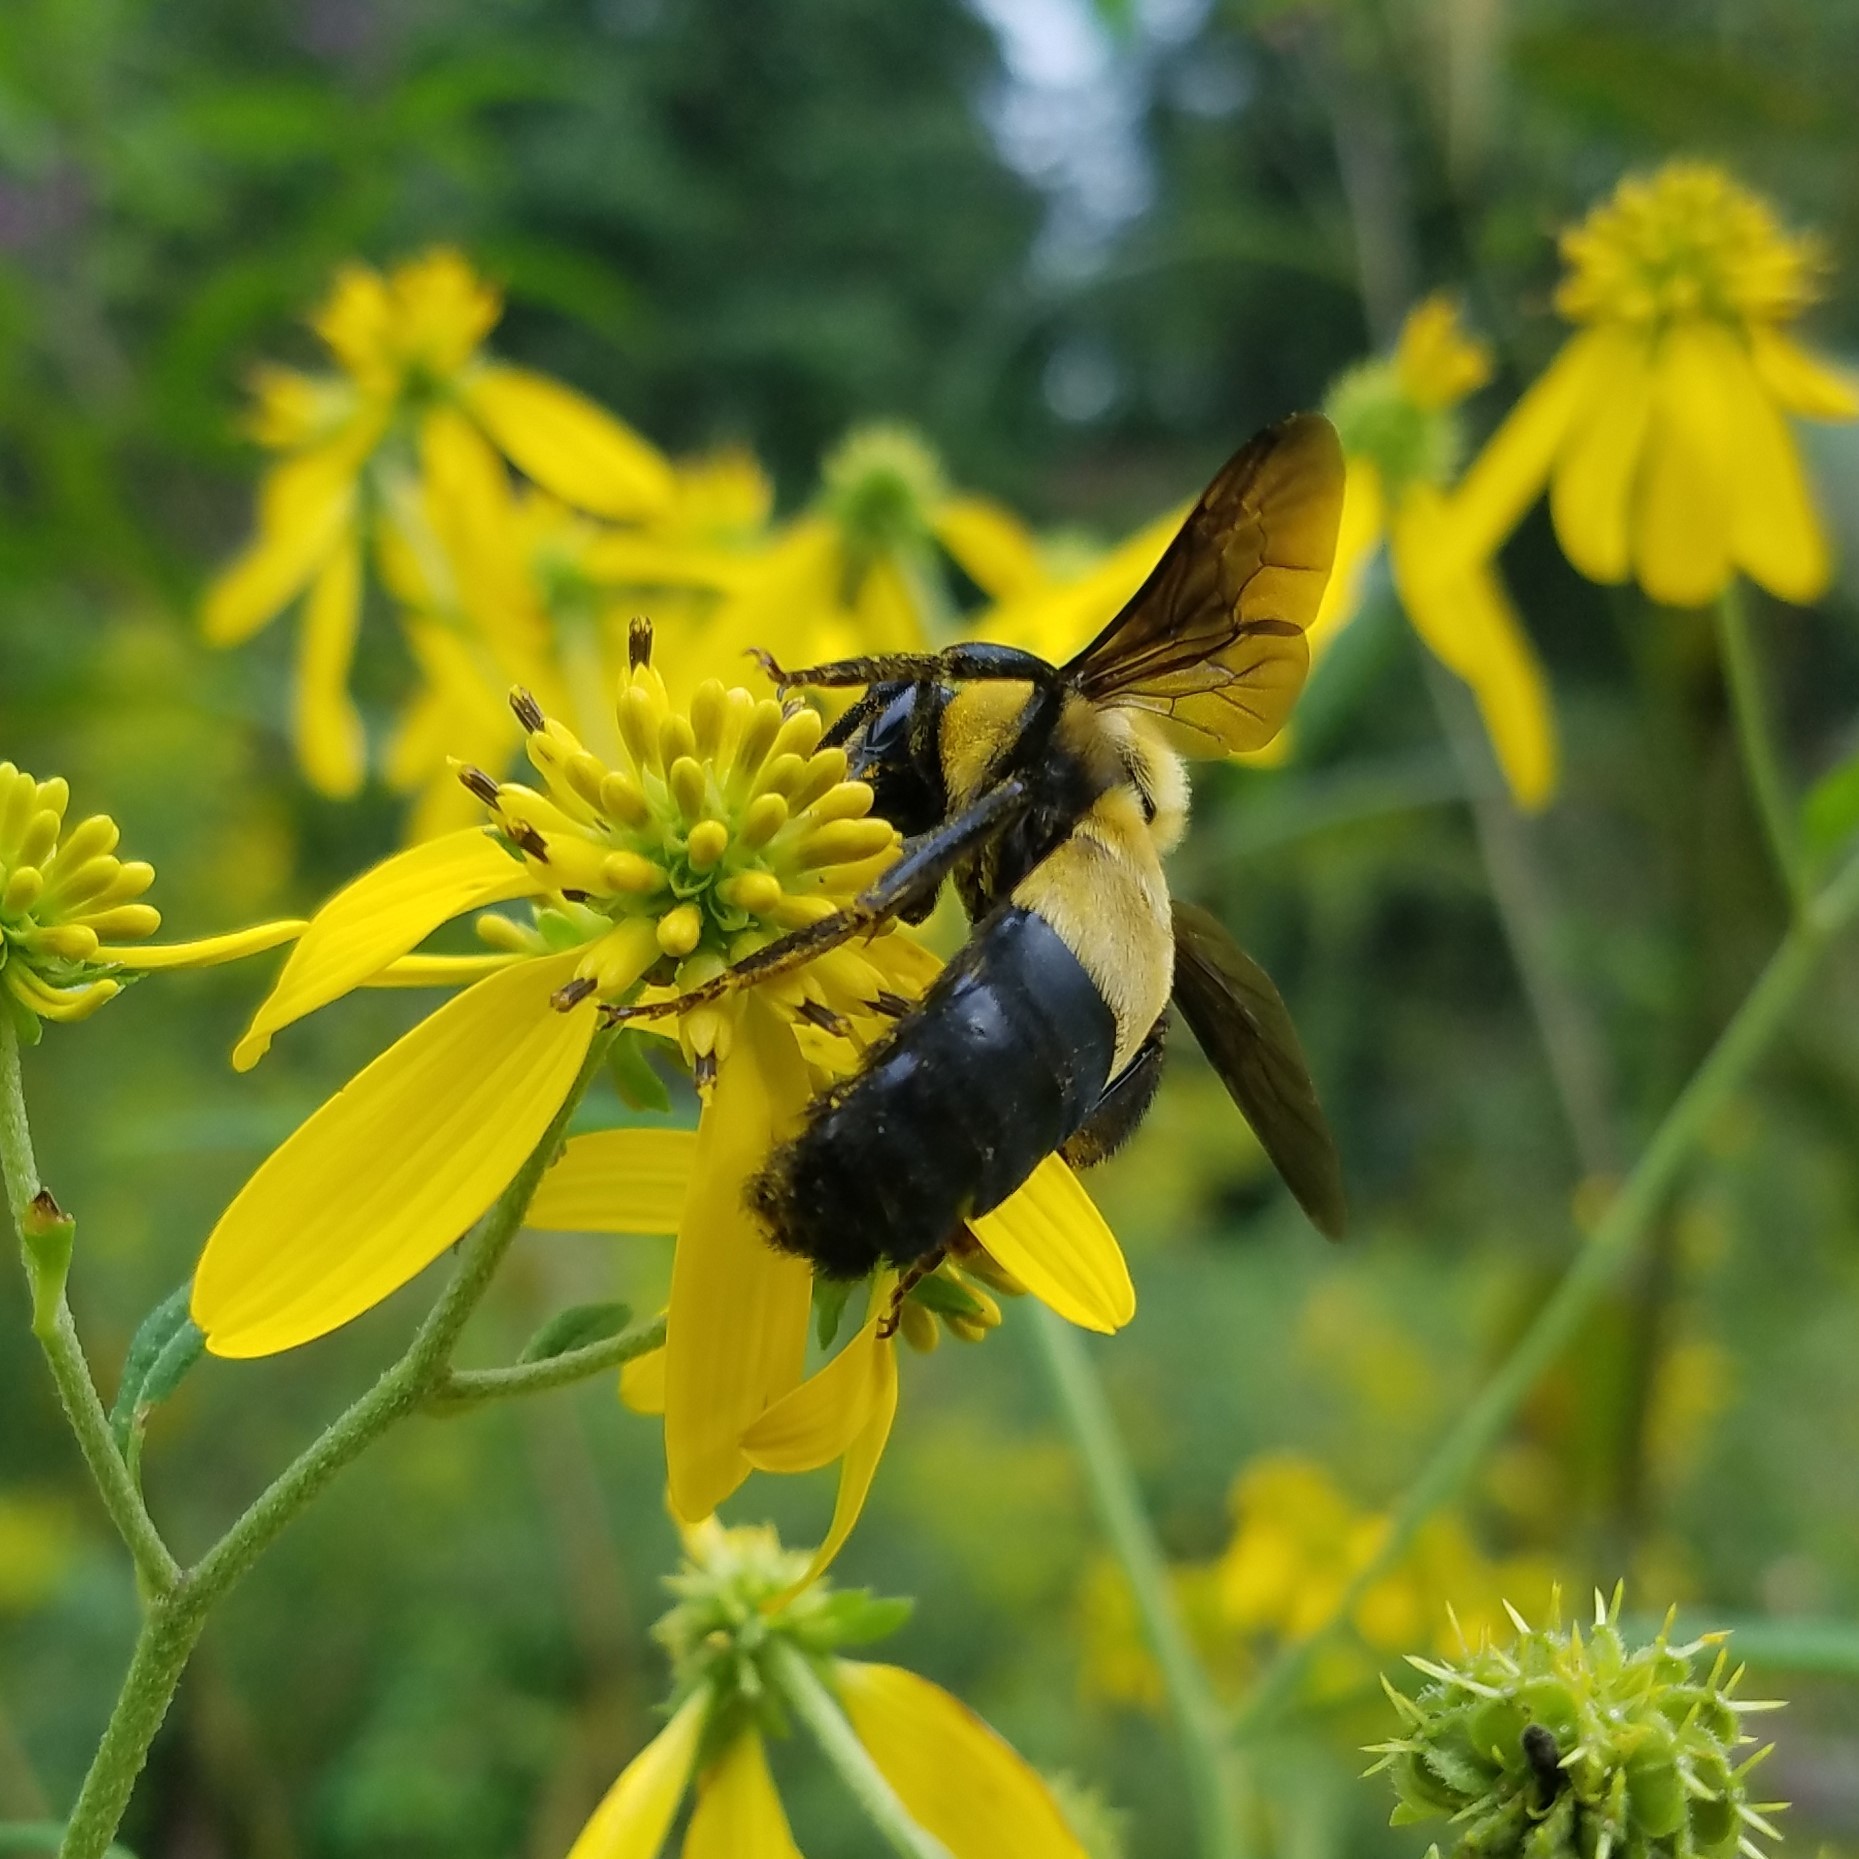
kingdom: Animalia
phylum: Arthropoda
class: Insecta
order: Hymenoptera
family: Apidae
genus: Bombus
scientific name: Bombus fraternus
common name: Southern plains bumble bee
